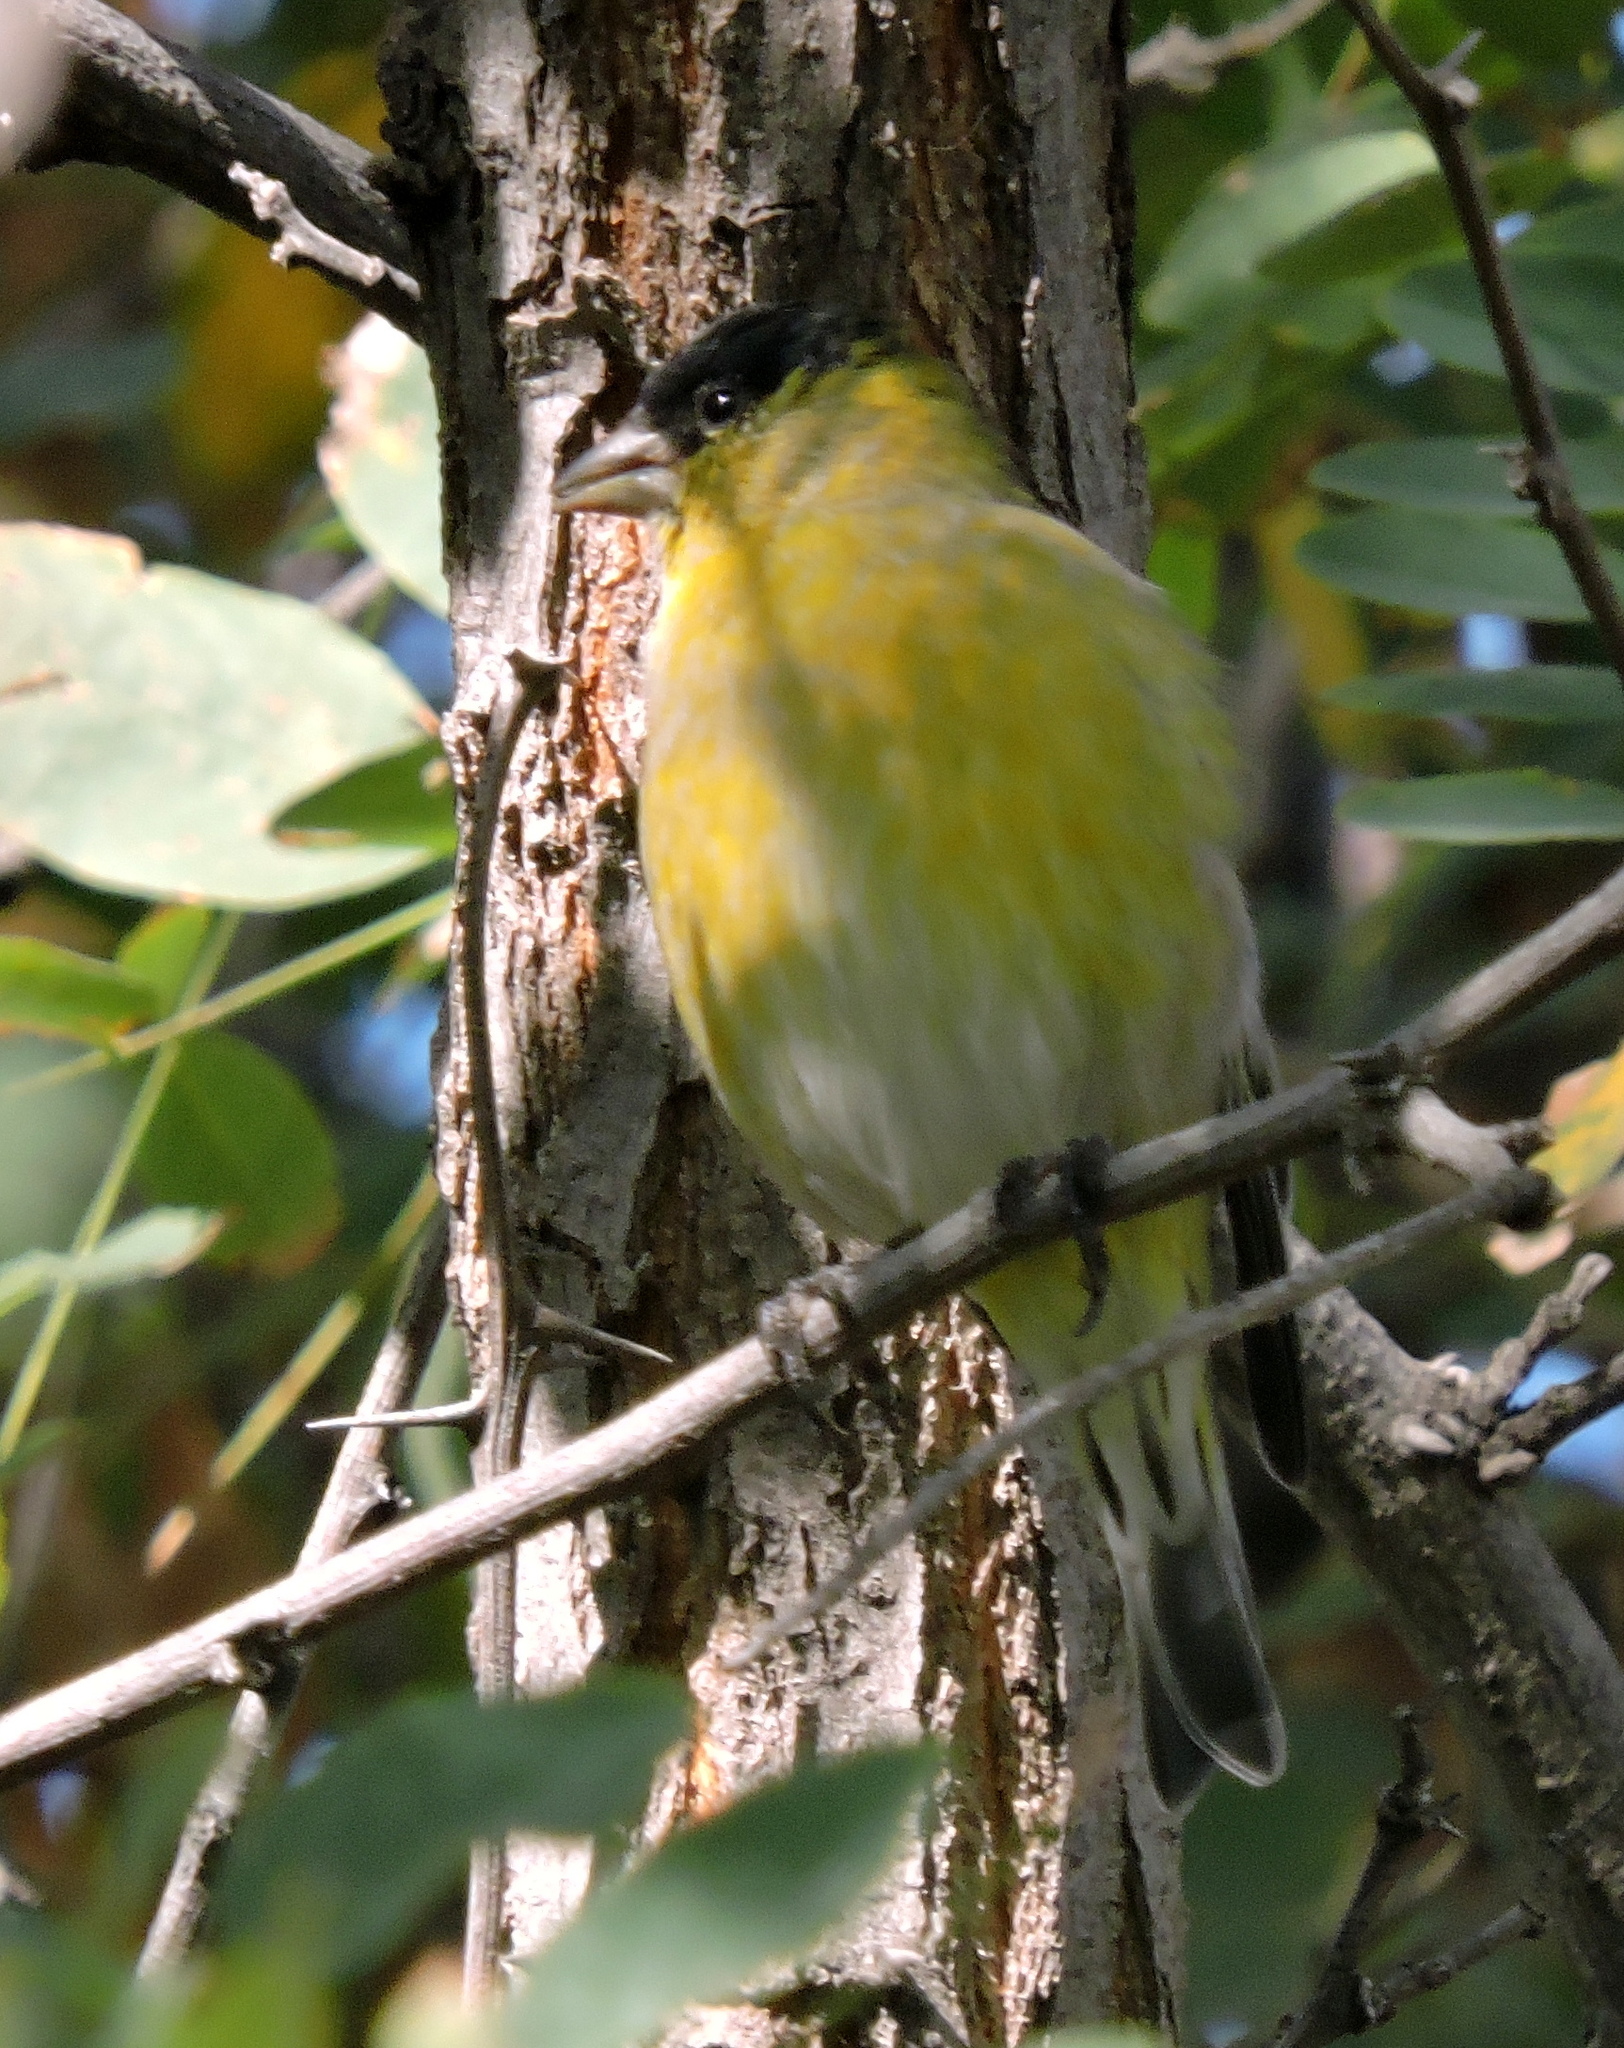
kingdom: Animalia
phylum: Chordata
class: Aves
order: Passeriformes
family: Fringillidae
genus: Spinus
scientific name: Spinus barbatus
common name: Black-chinned siskin
